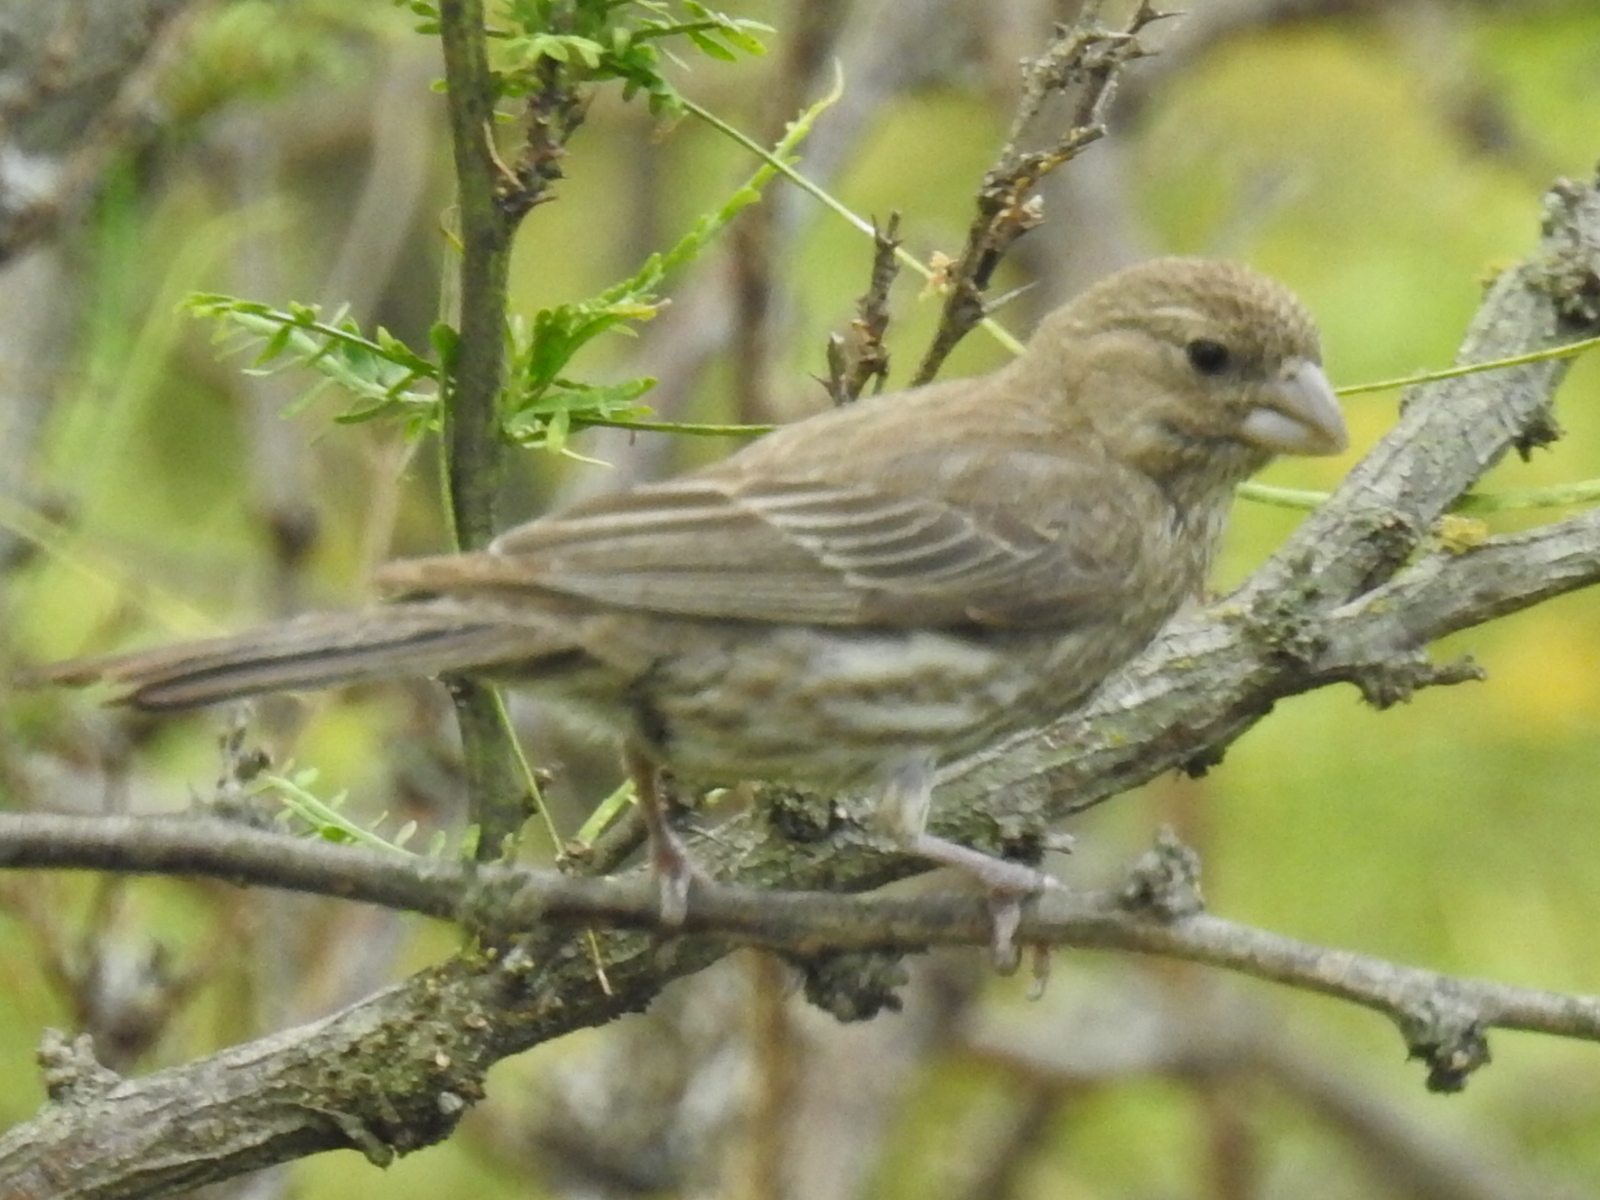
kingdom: Animalia
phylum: Chordata
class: Aves
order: Passeriformes
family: Fringillidae
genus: Haemorhous
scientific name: Haemorhous mexicanus
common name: House finch
